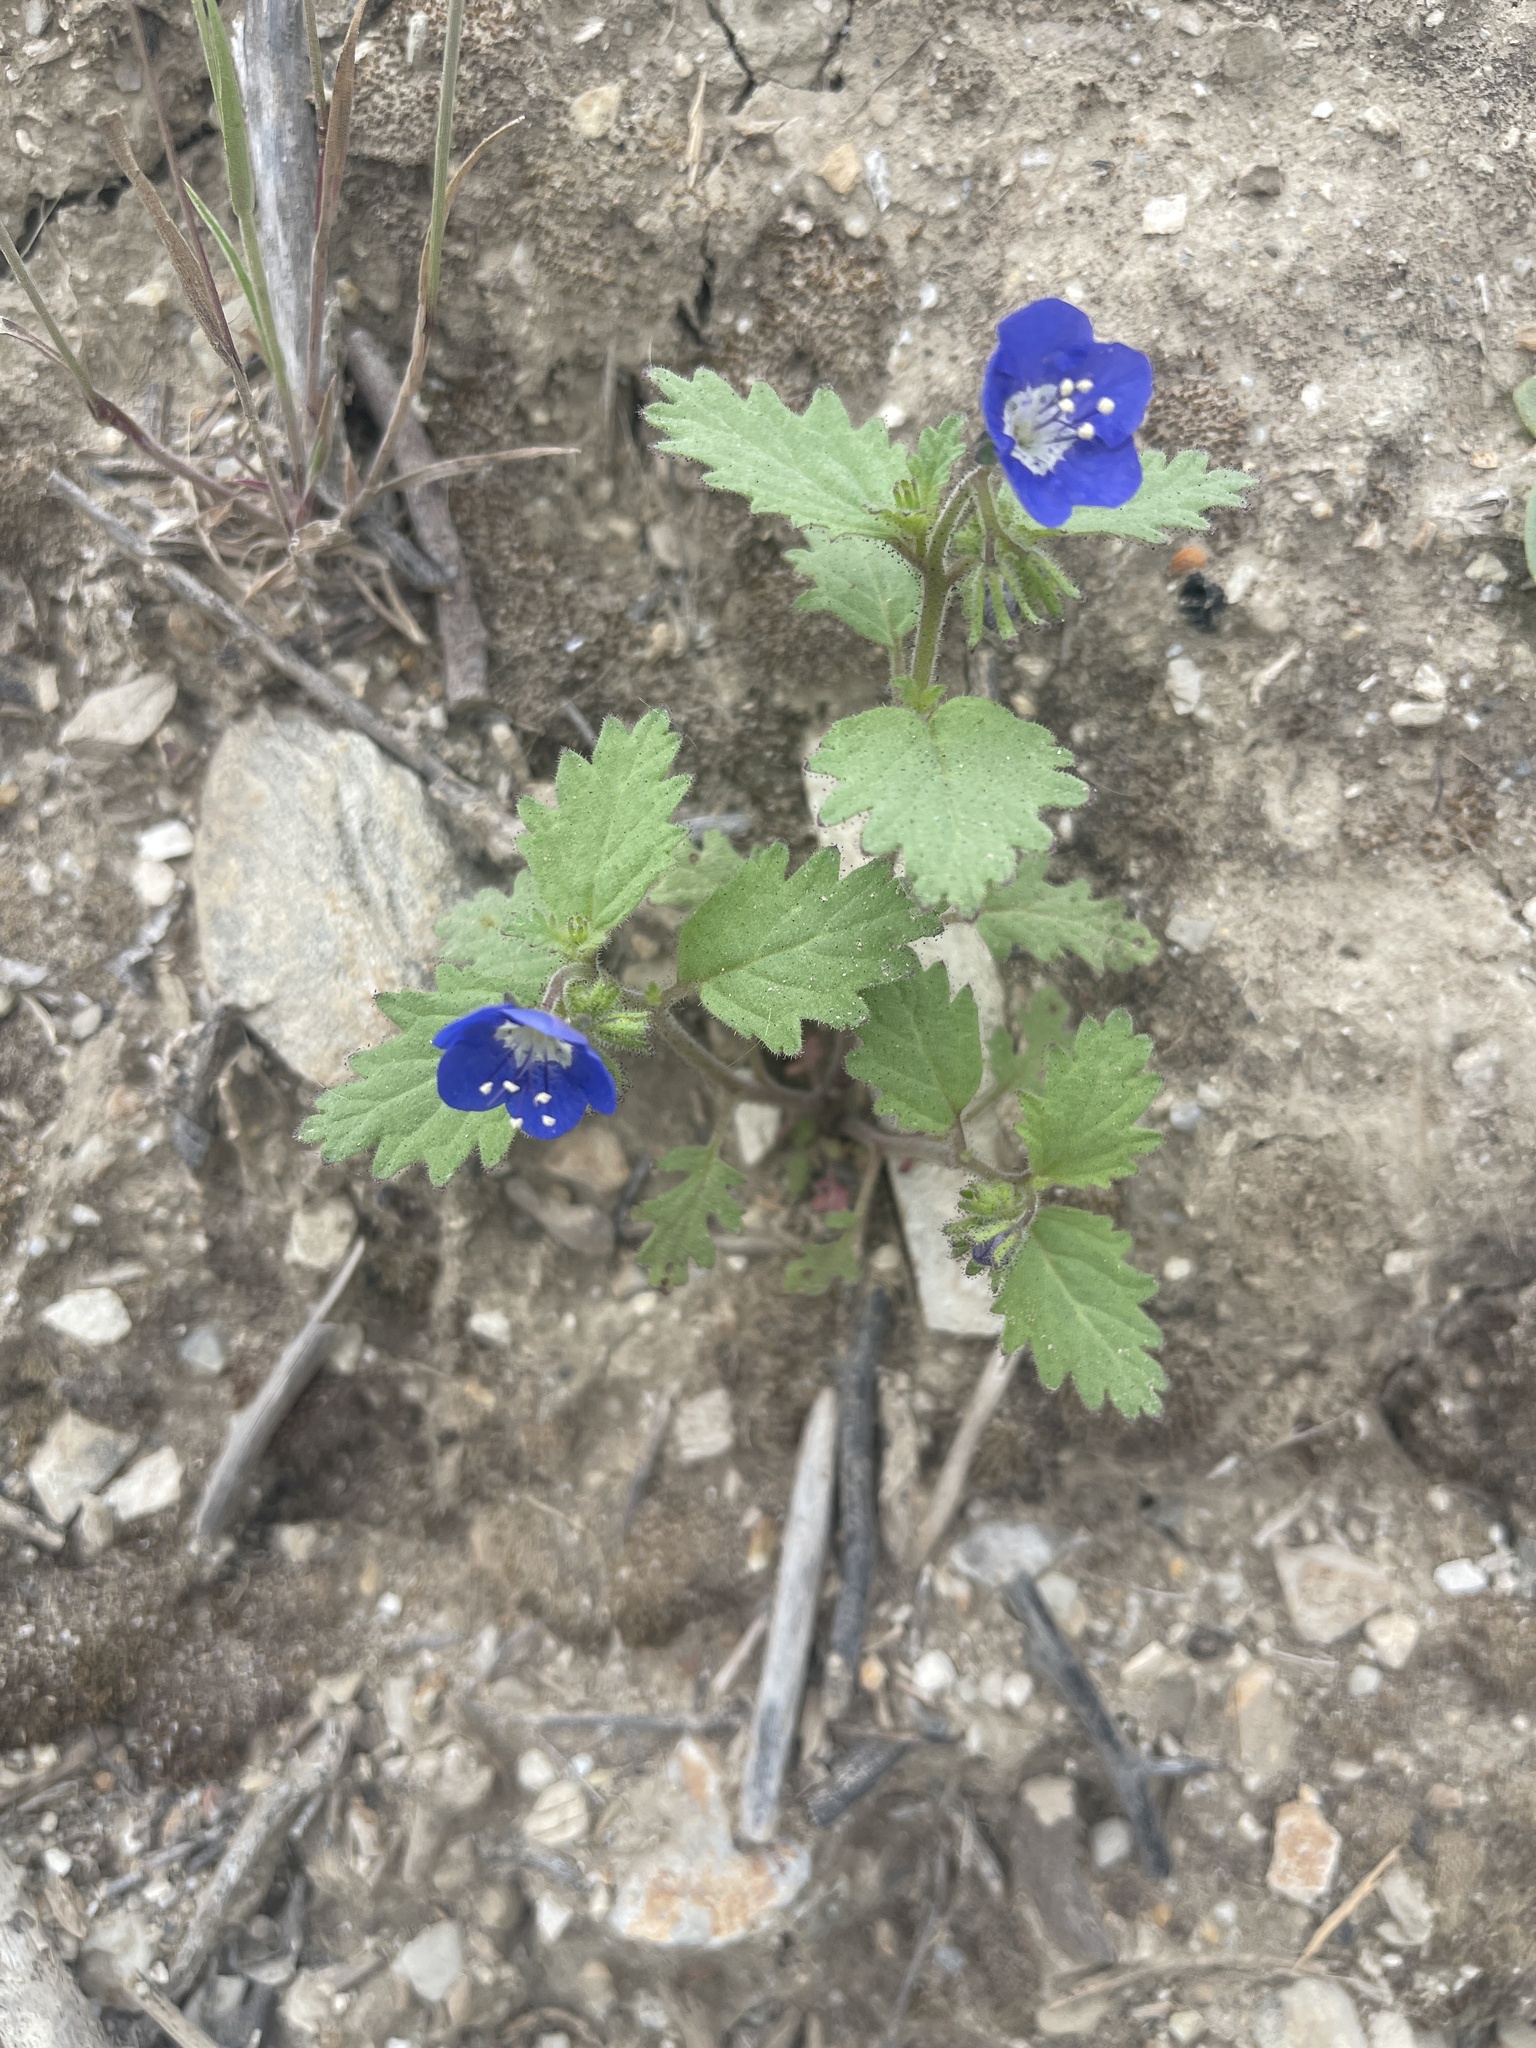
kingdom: Plantae
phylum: Tracheophyta
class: Magnoliopsida
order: Boraginales
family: Hydrophyllaceae
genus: Phacelia
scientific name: Phacelia viscida
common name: Sticky phacelia
